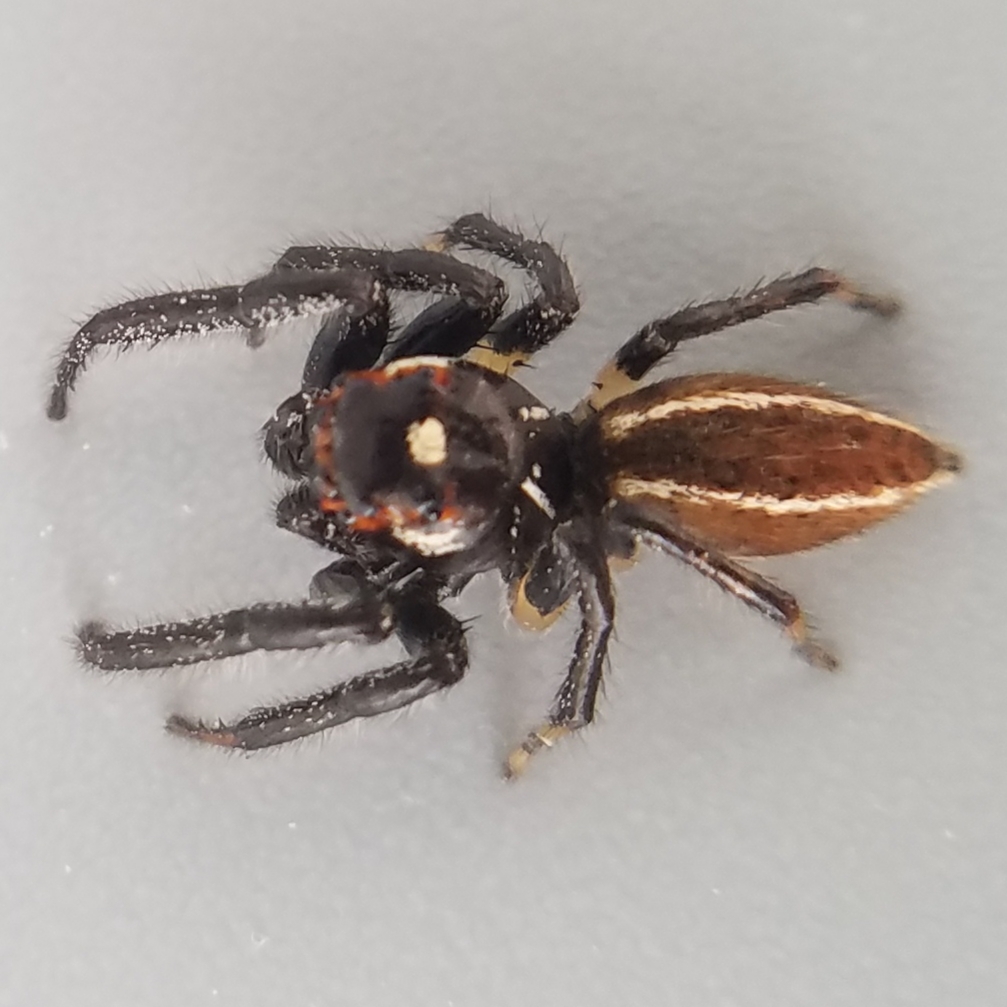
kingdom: Animalia
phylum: Arthropoda
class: Arachnida
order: Araneae
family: Salticidae
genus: Colonus
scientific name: Colonus sylvanus
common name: Jumping spiders
